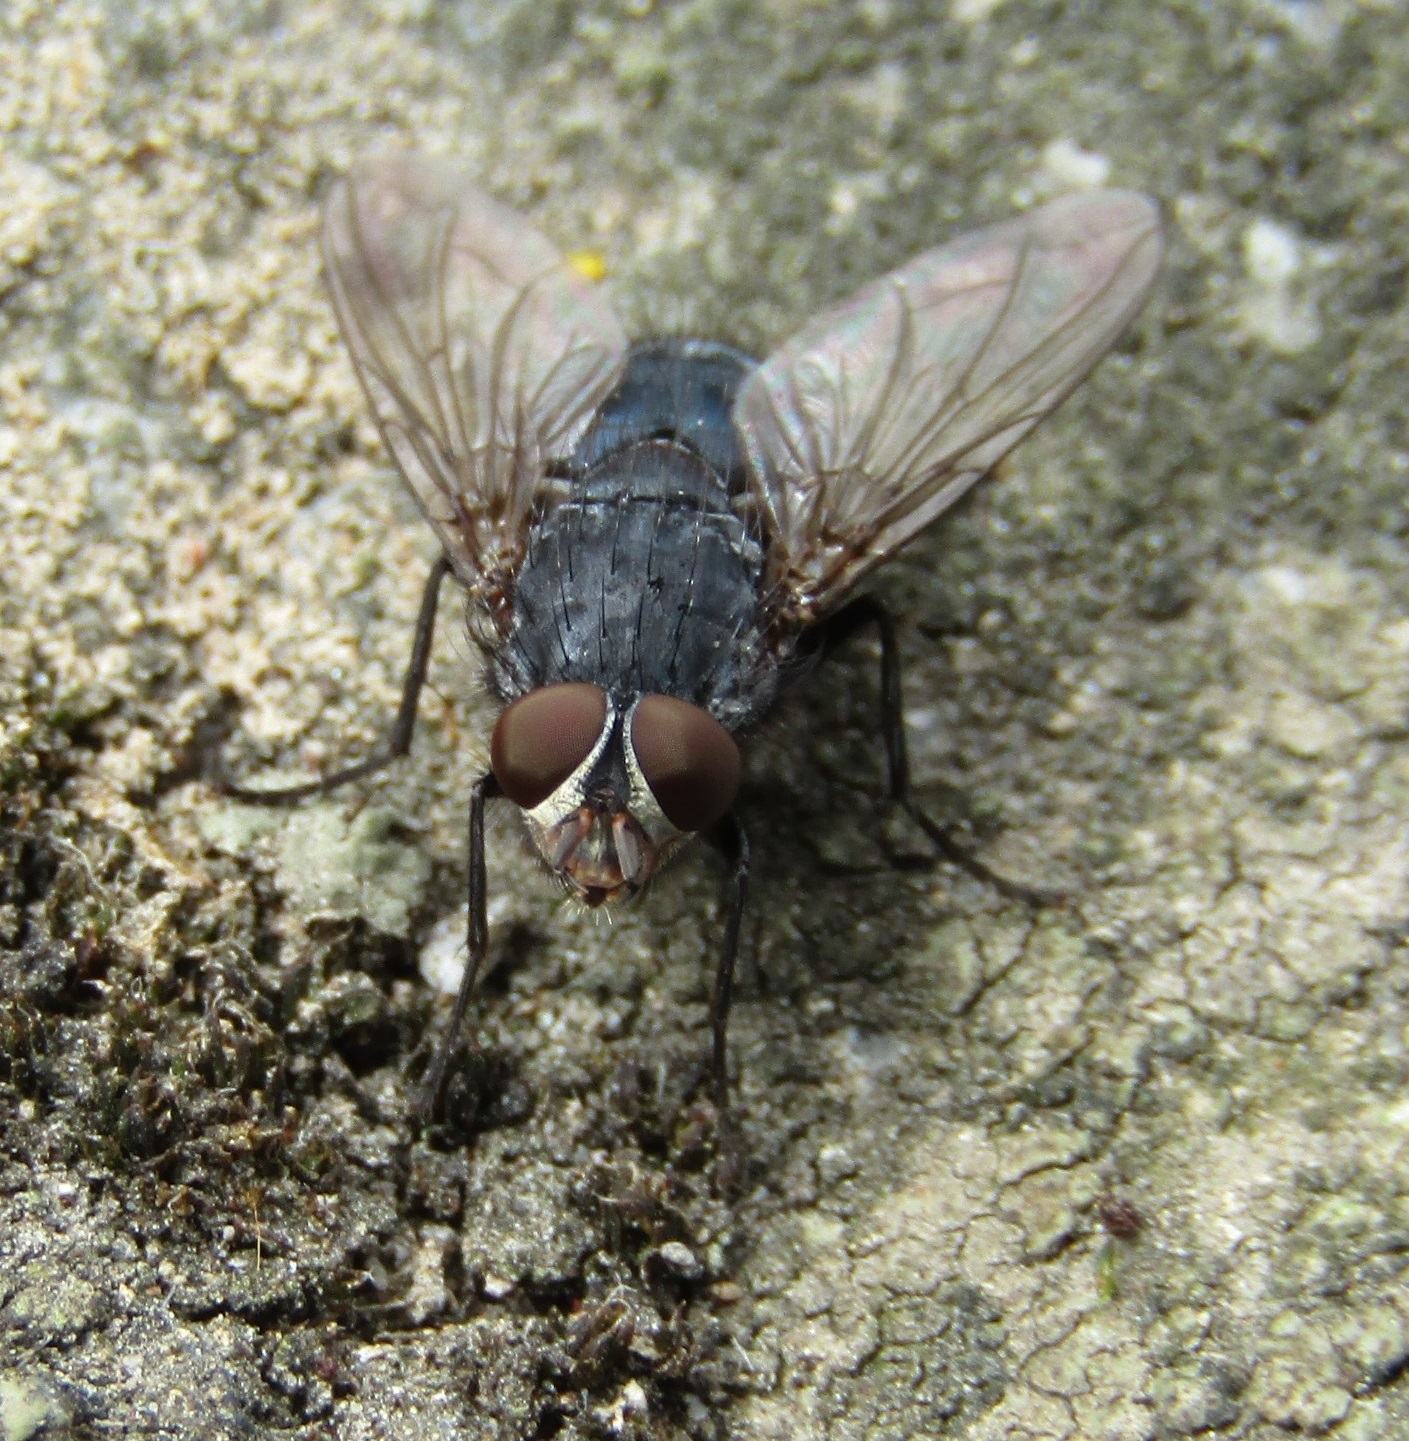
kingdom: Animalia
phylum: Arthropoda
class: Insecta
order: Diptera
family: Calliphoridae
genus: Calliphora
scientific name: Calliphora vicina
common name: Common blow flie
